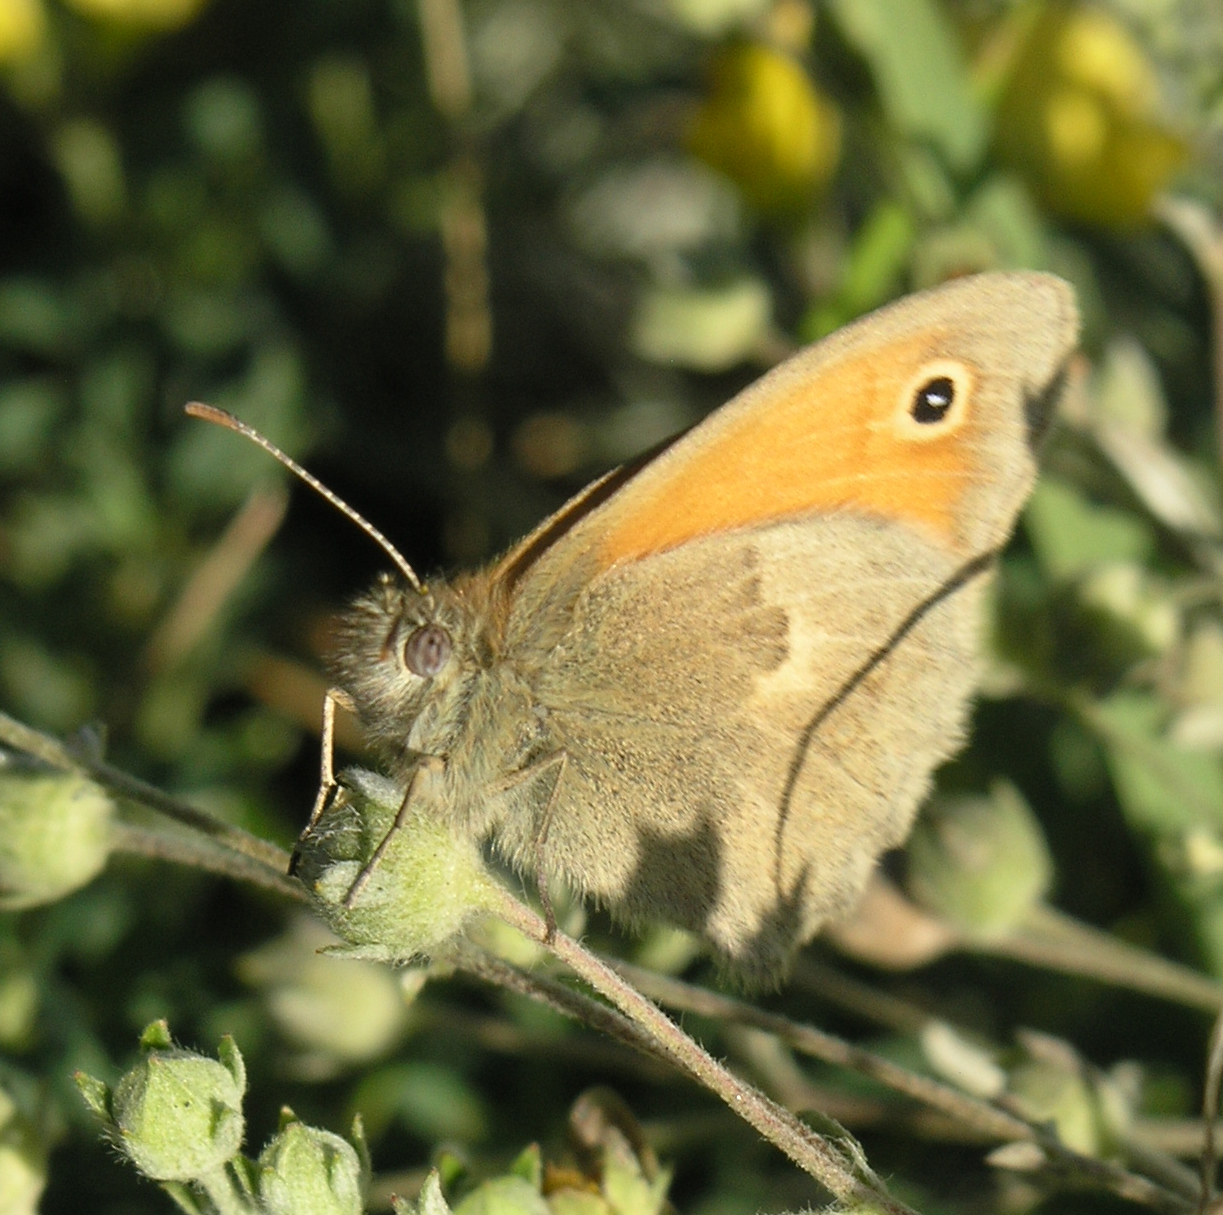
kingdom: Animalia
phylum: Arthropoda
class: Insecta
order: Lepidoptera
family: Nymphalidae
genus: Coenonympha
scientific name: Coenonympha pamphilus
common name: Small heath
